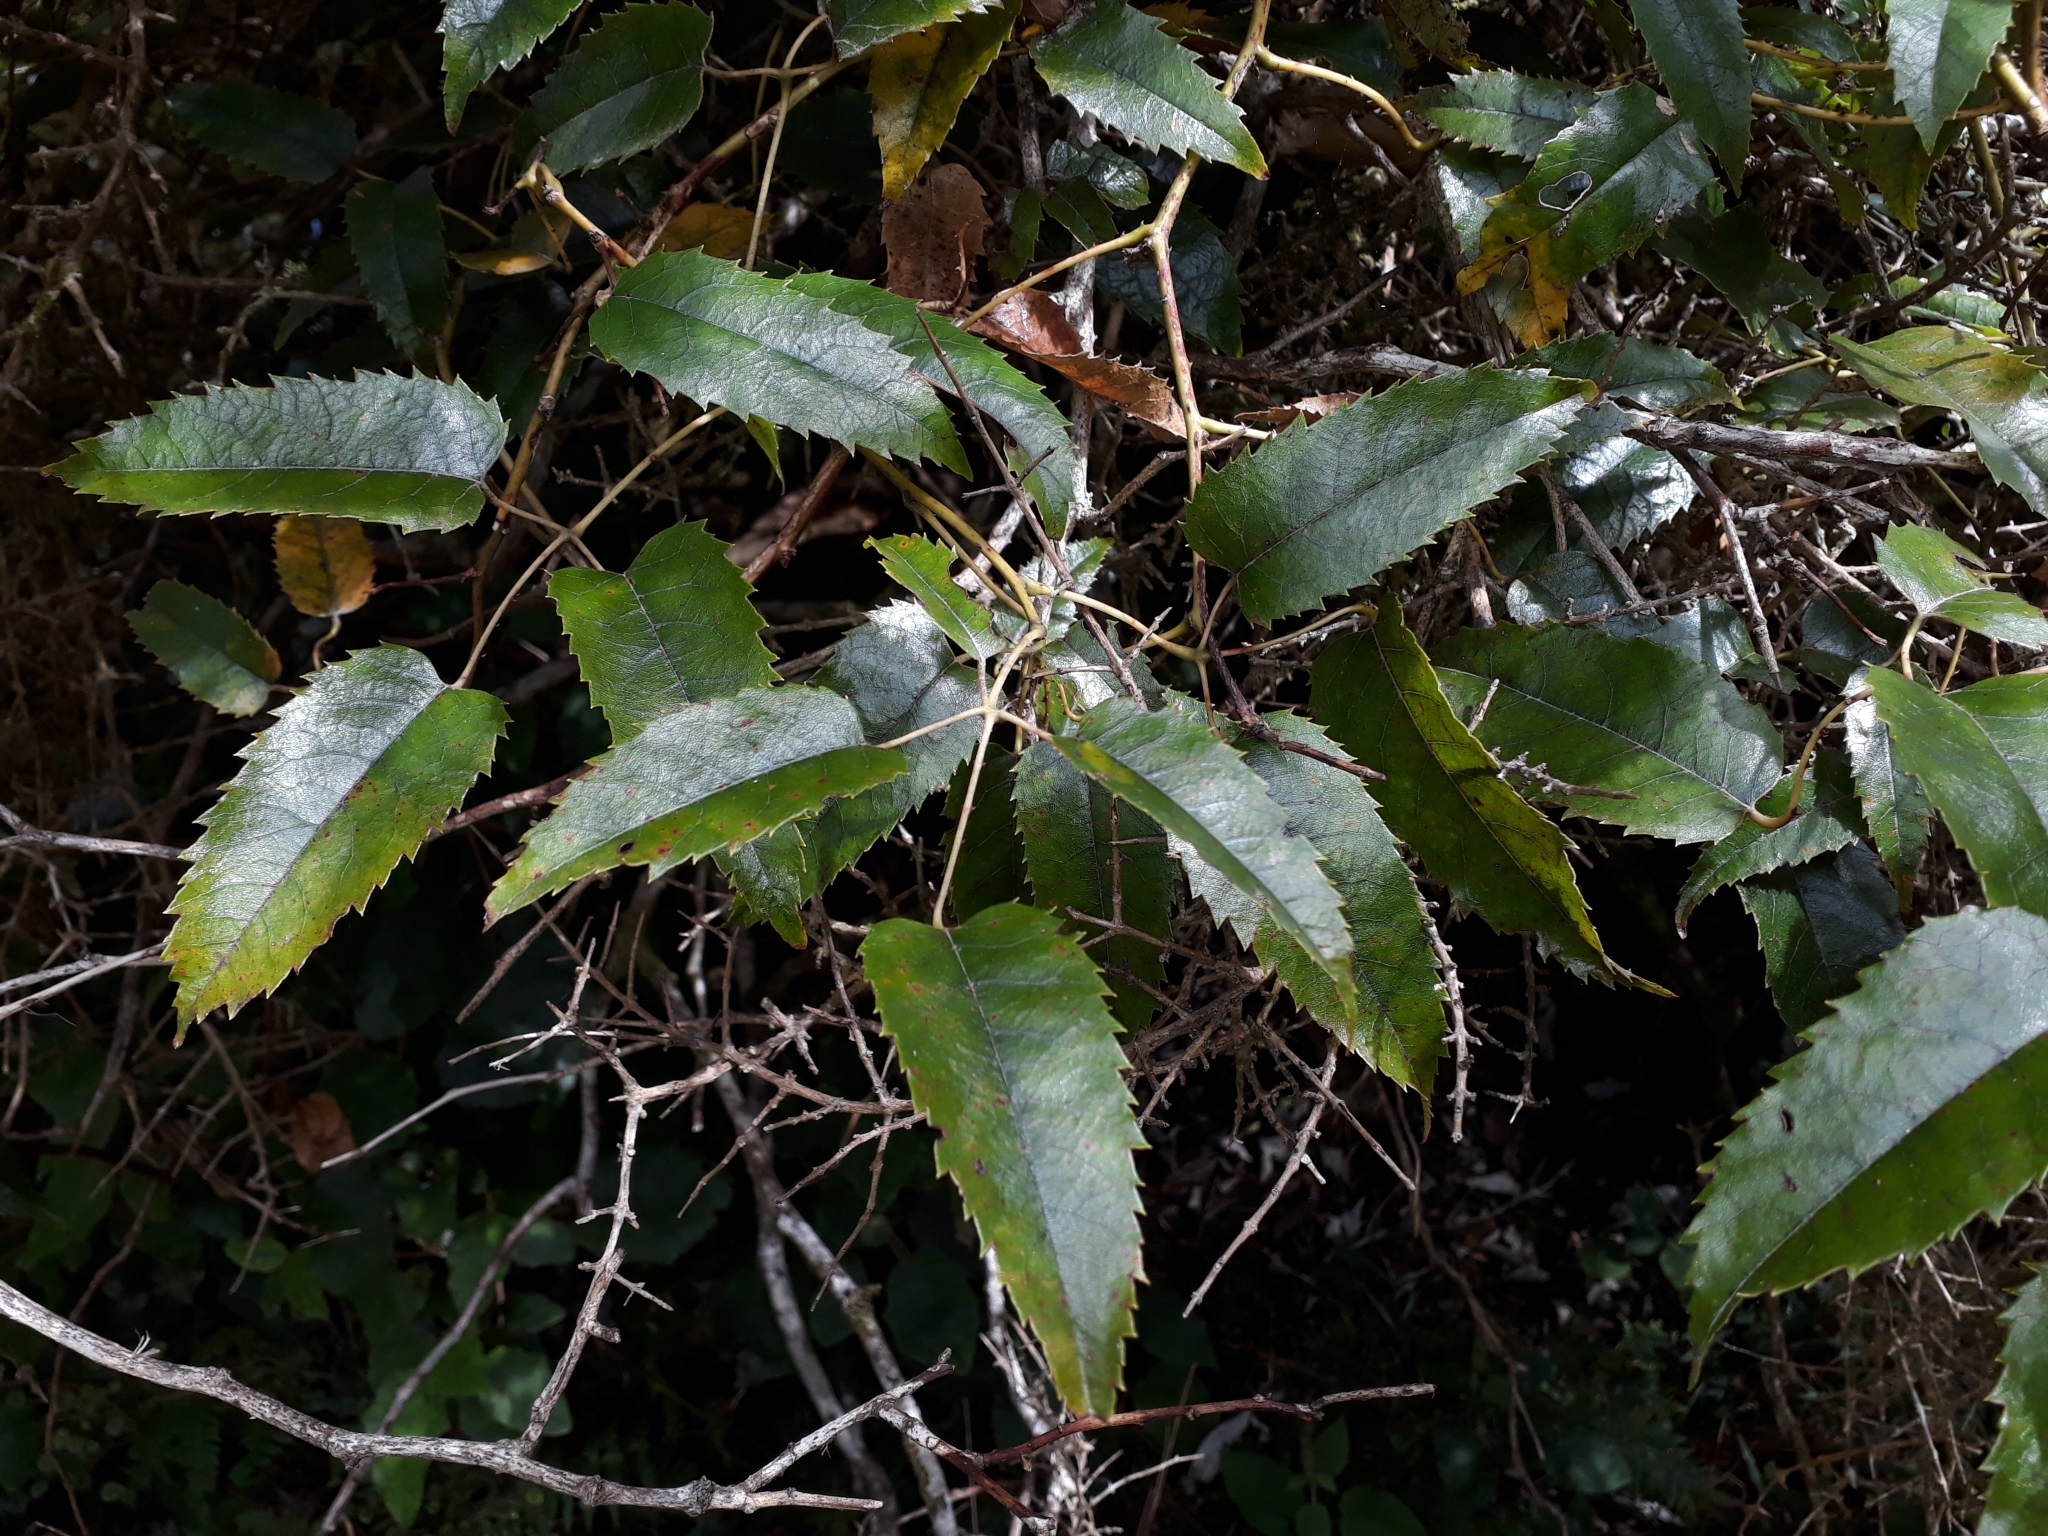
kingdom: Plantae
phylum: Tracheophyta
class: Magnoliopsida
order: Rosales
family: Rosaceae
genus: Rubus
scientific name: Rubus cissoides
